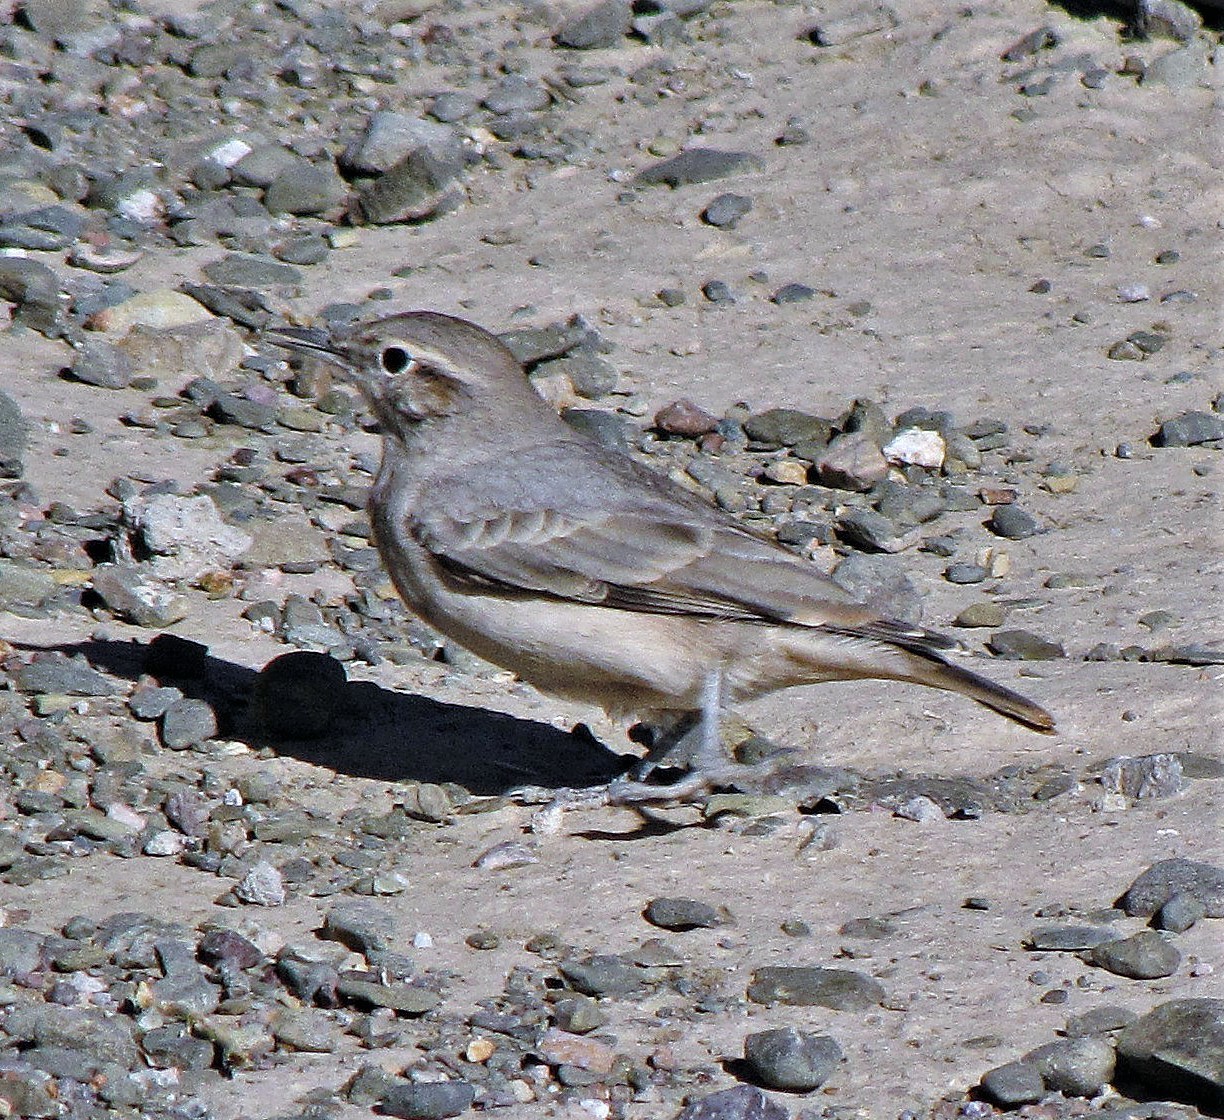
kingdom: Animalia
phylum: Chordata
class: Aves
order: Passeriformes
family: Furnariidae
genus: Geositta
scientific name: Geositta rufipennis
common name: Rufous-banded miner
